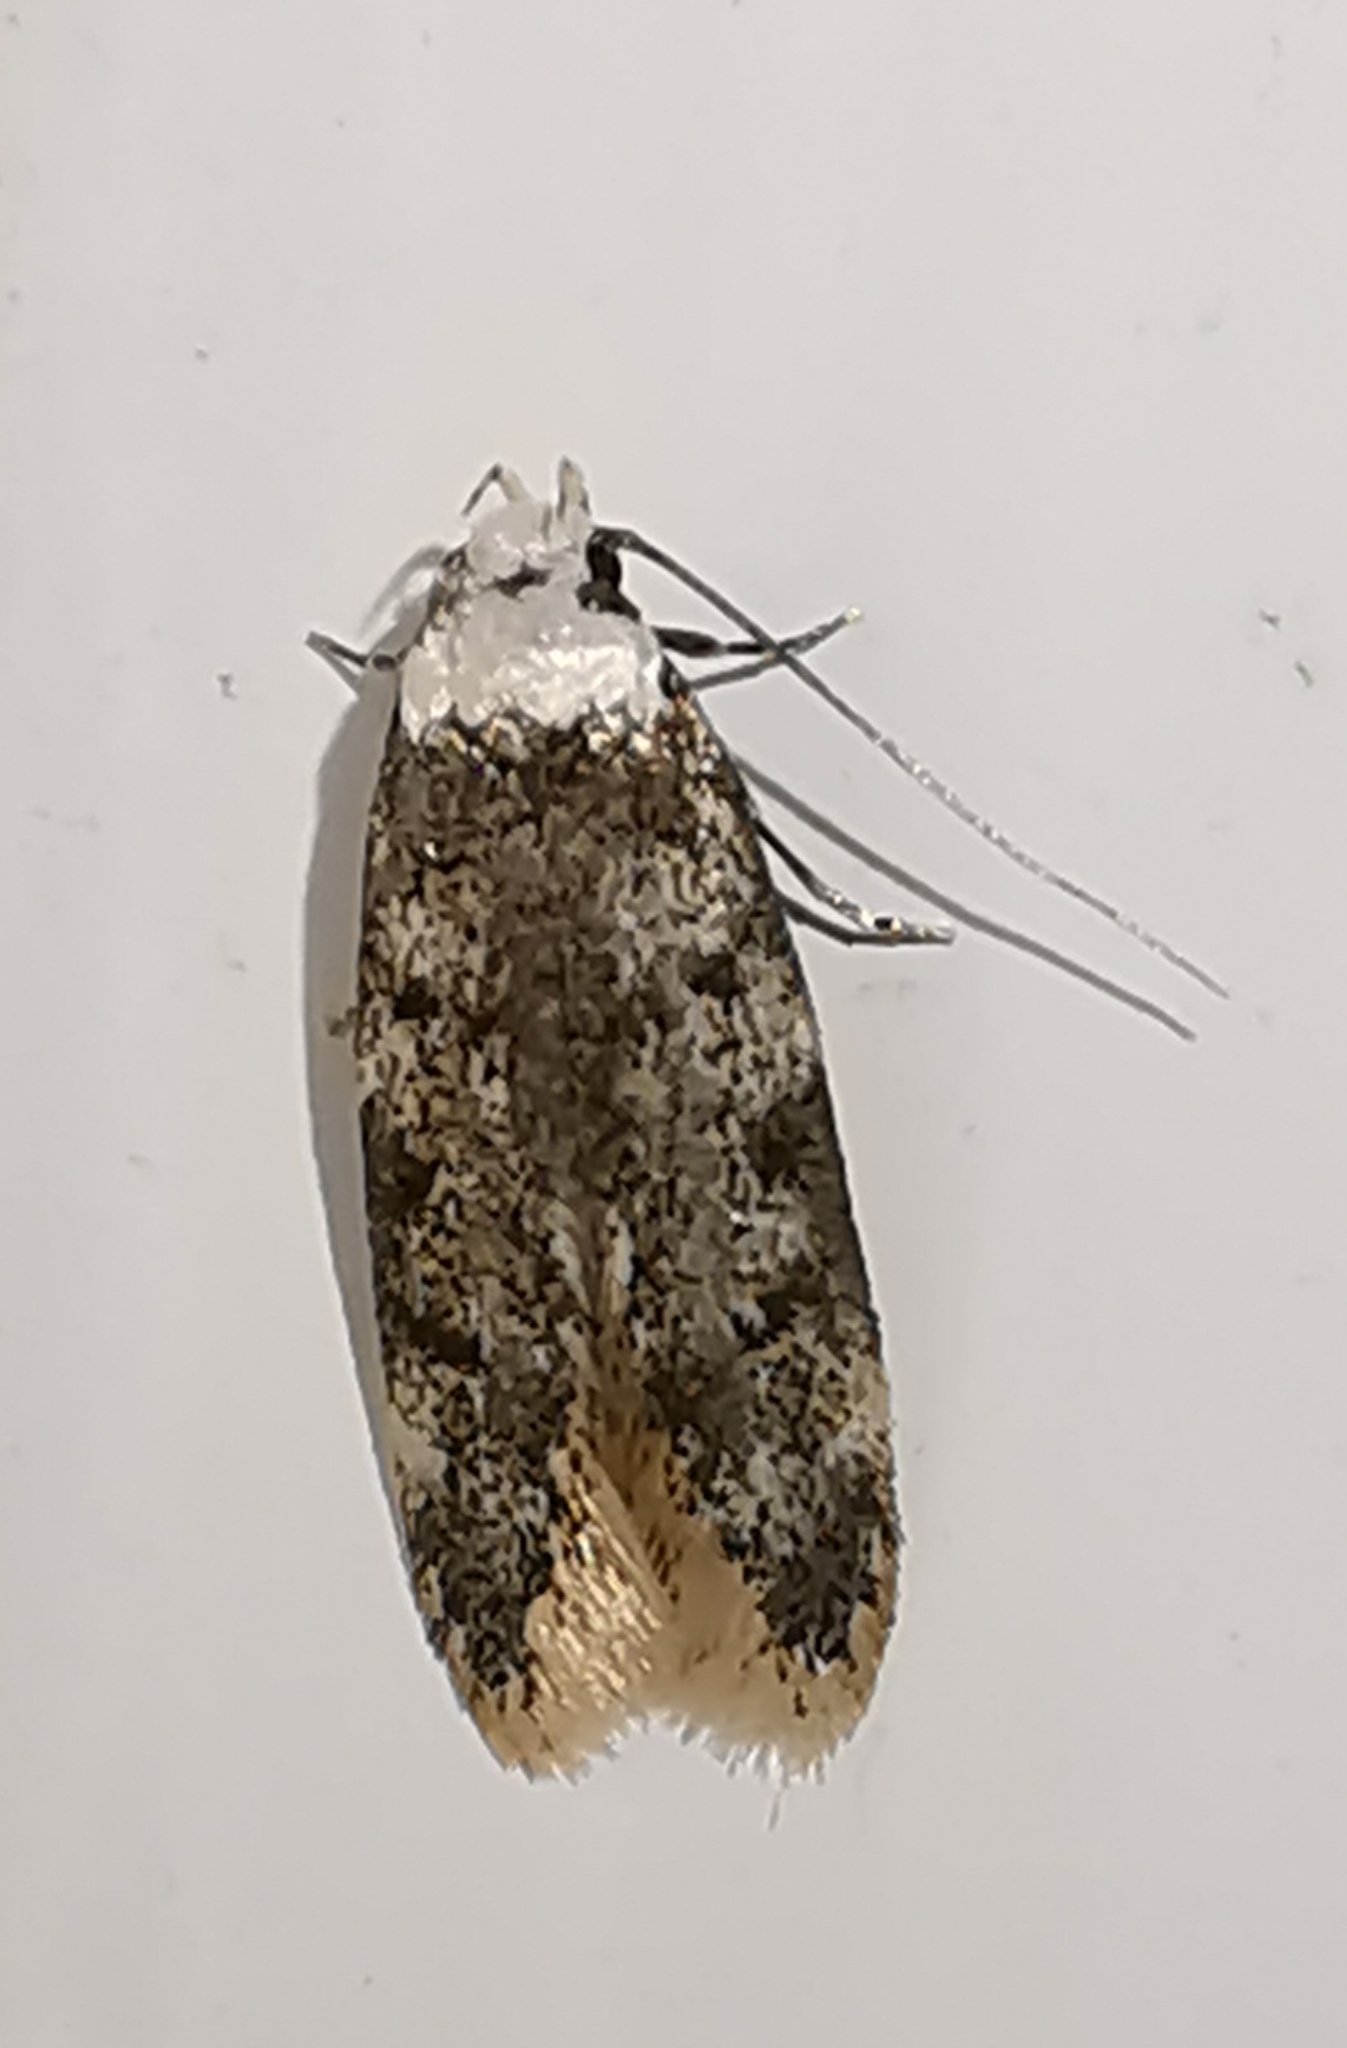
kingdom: Animalia
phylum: Arthropoda
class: Insecta
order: Lepidoptera
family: Oecophoridae
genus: Endrosis
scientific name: Endrosis sarcitrella
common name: White-shouldered house moth
